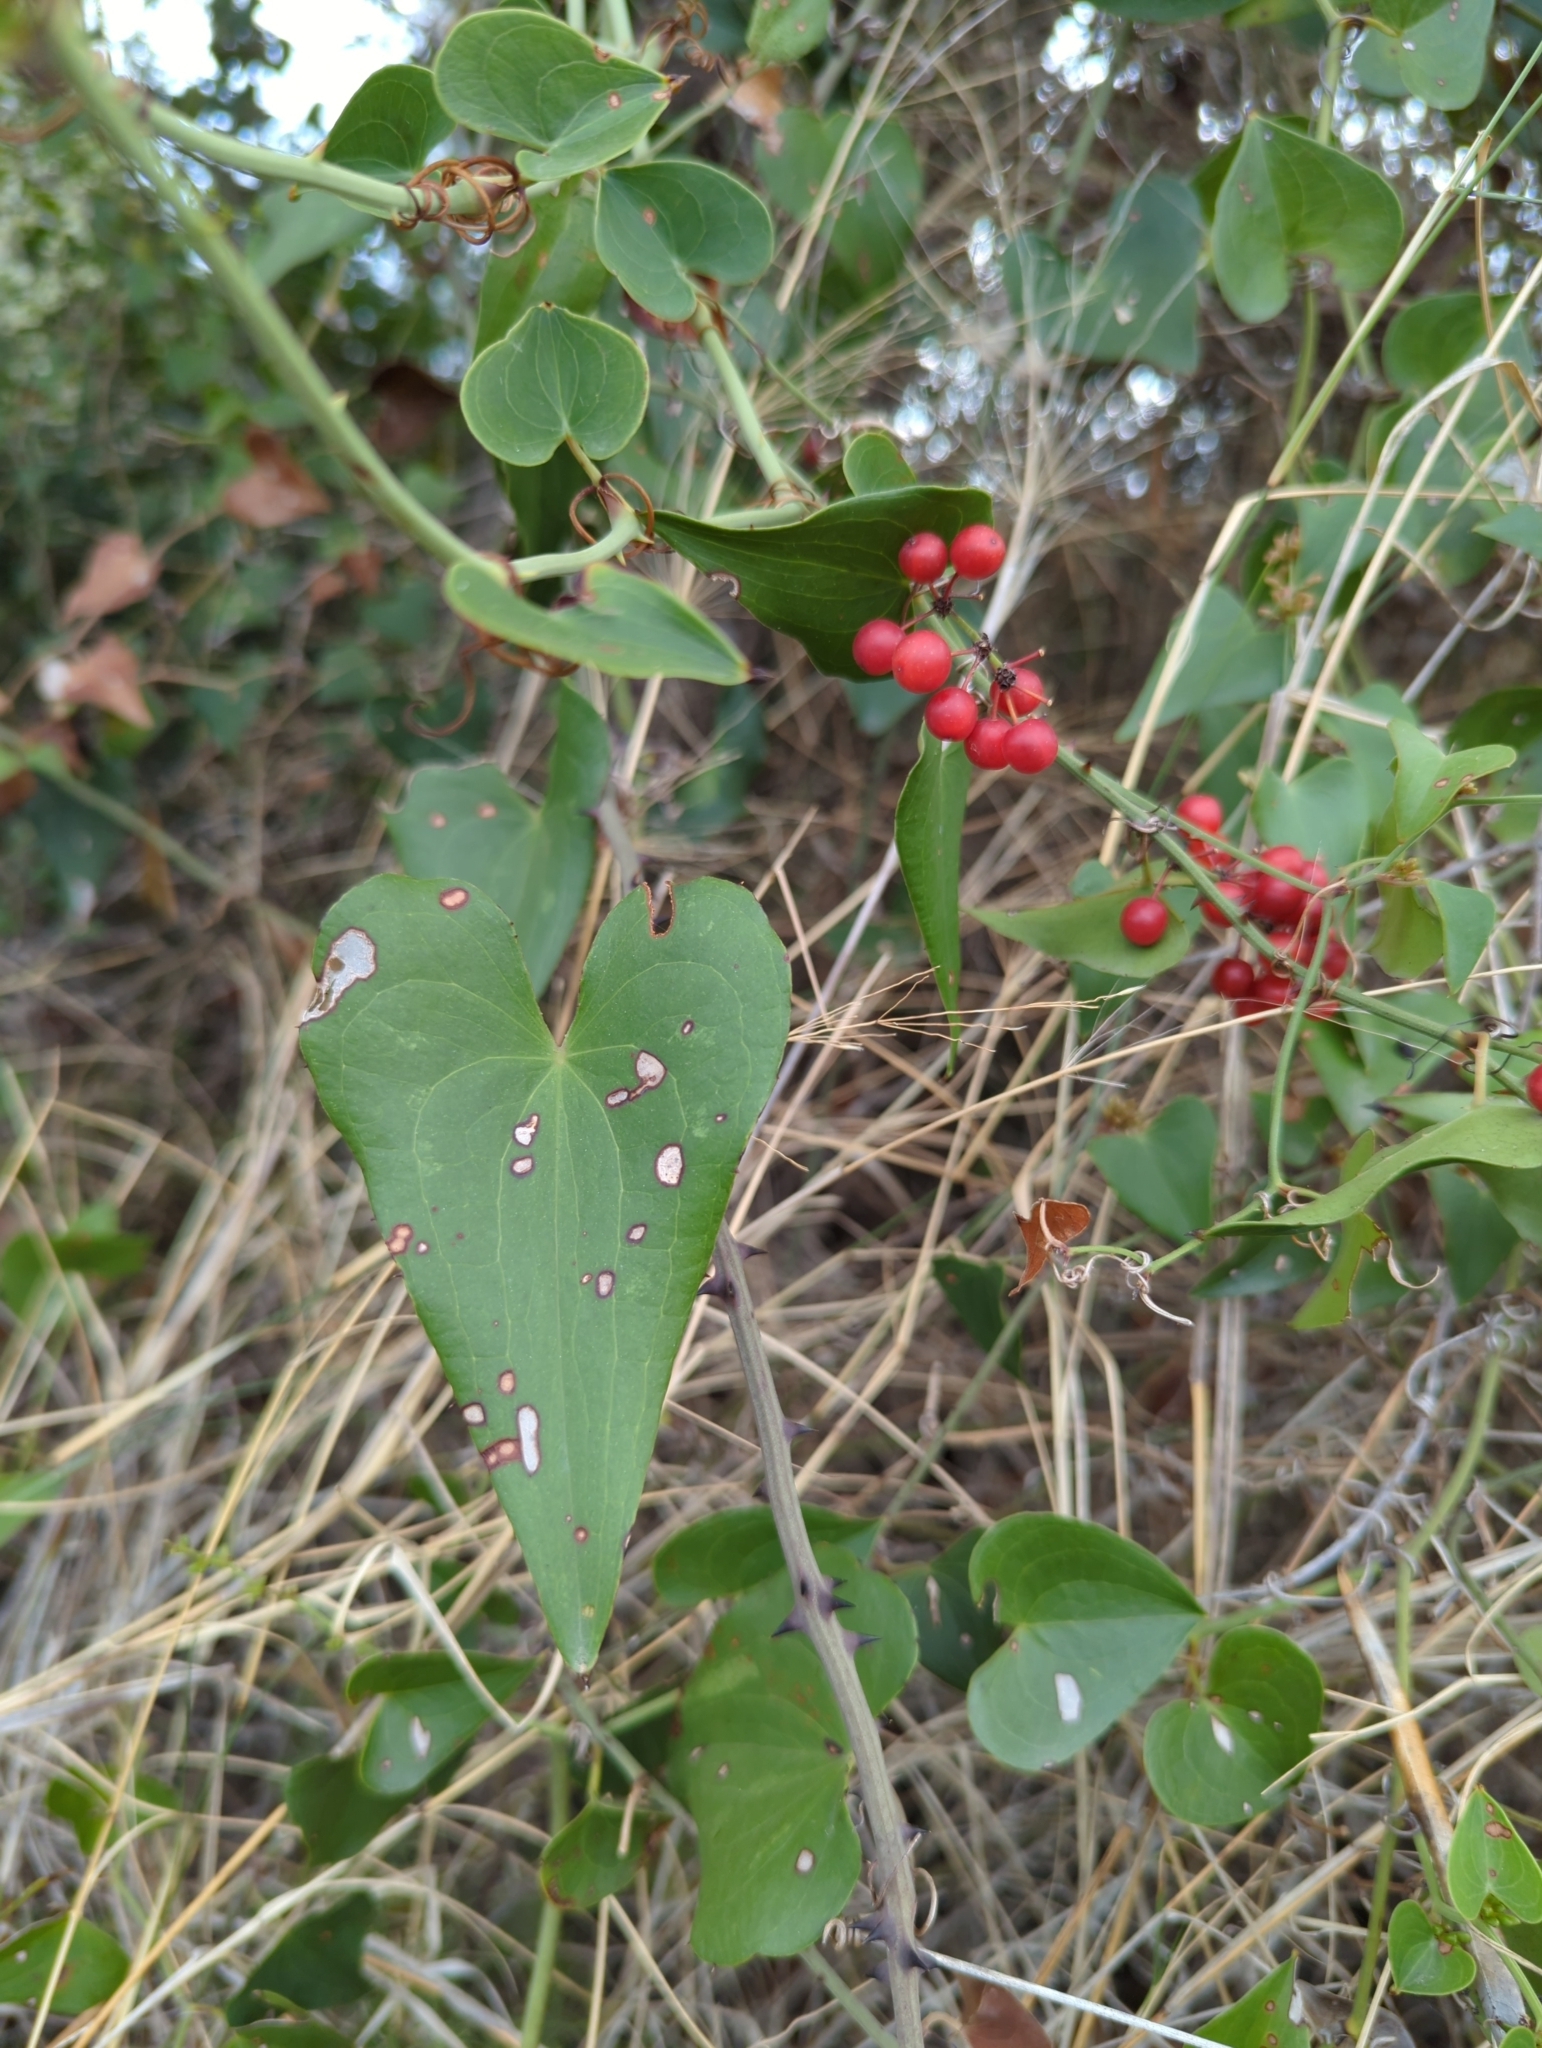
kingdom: Plantae
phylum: Tracheophyta
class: Liliopsida
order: Liliales
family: Smilacaceae
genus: Smilax
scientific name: Smilax aspera
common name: Common smilax
